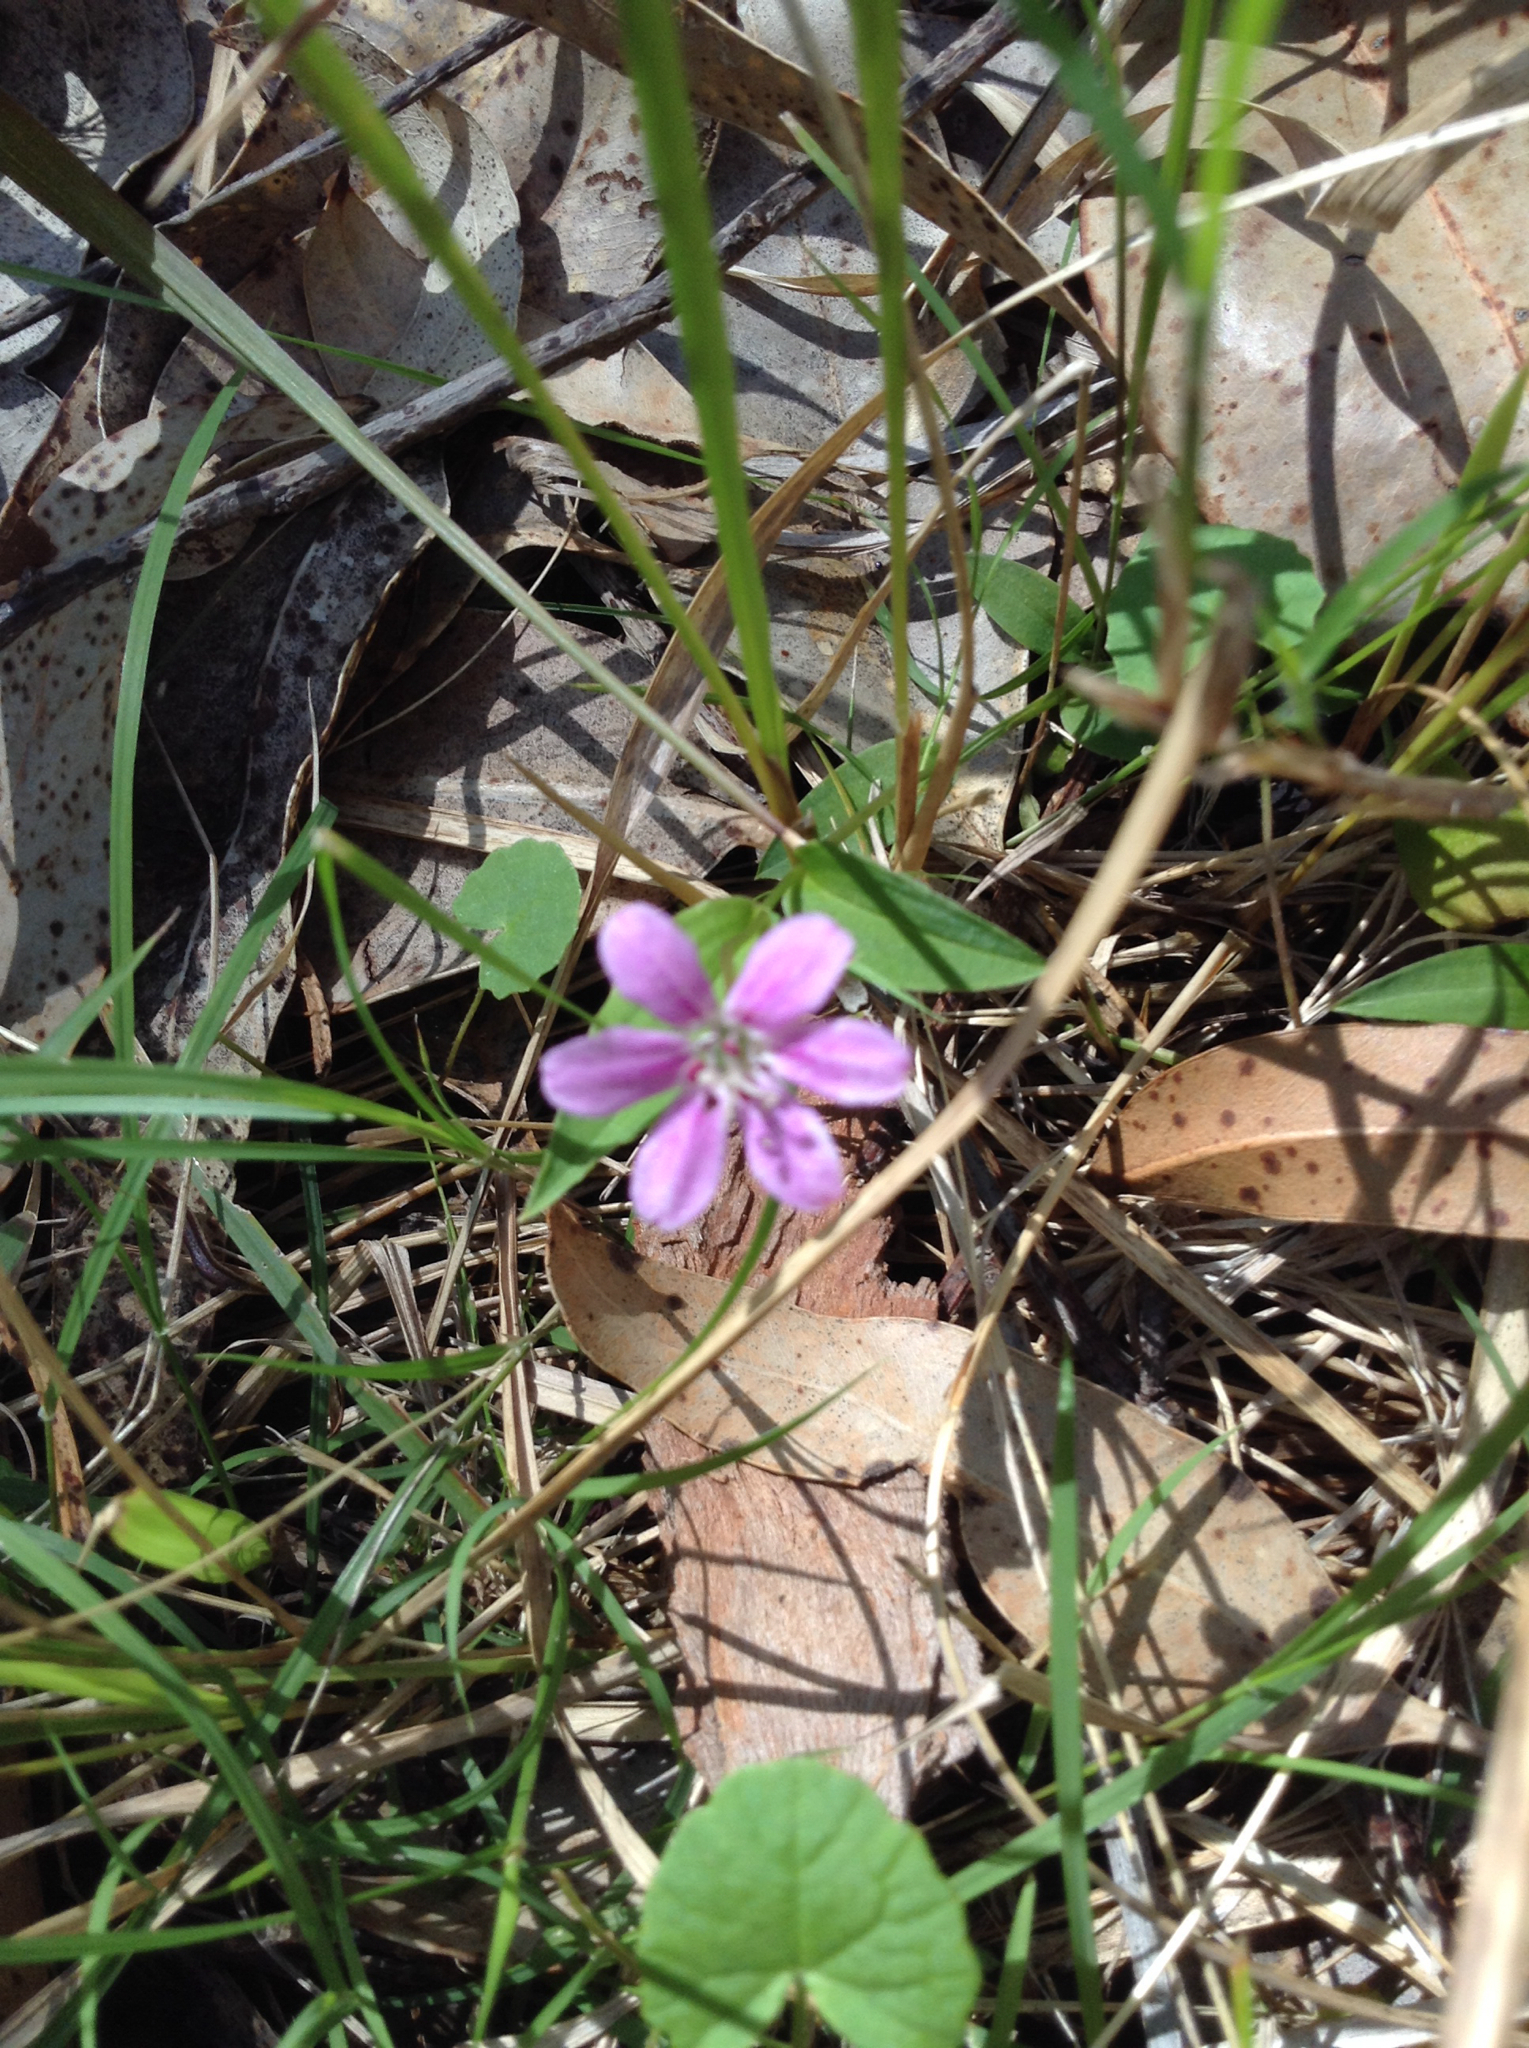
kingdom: Plantae
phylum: Tracheophyta
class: Liliopsida
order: Liliales
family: Colchicaceae
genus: Schelhammera
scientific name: Schelhammera undulata
